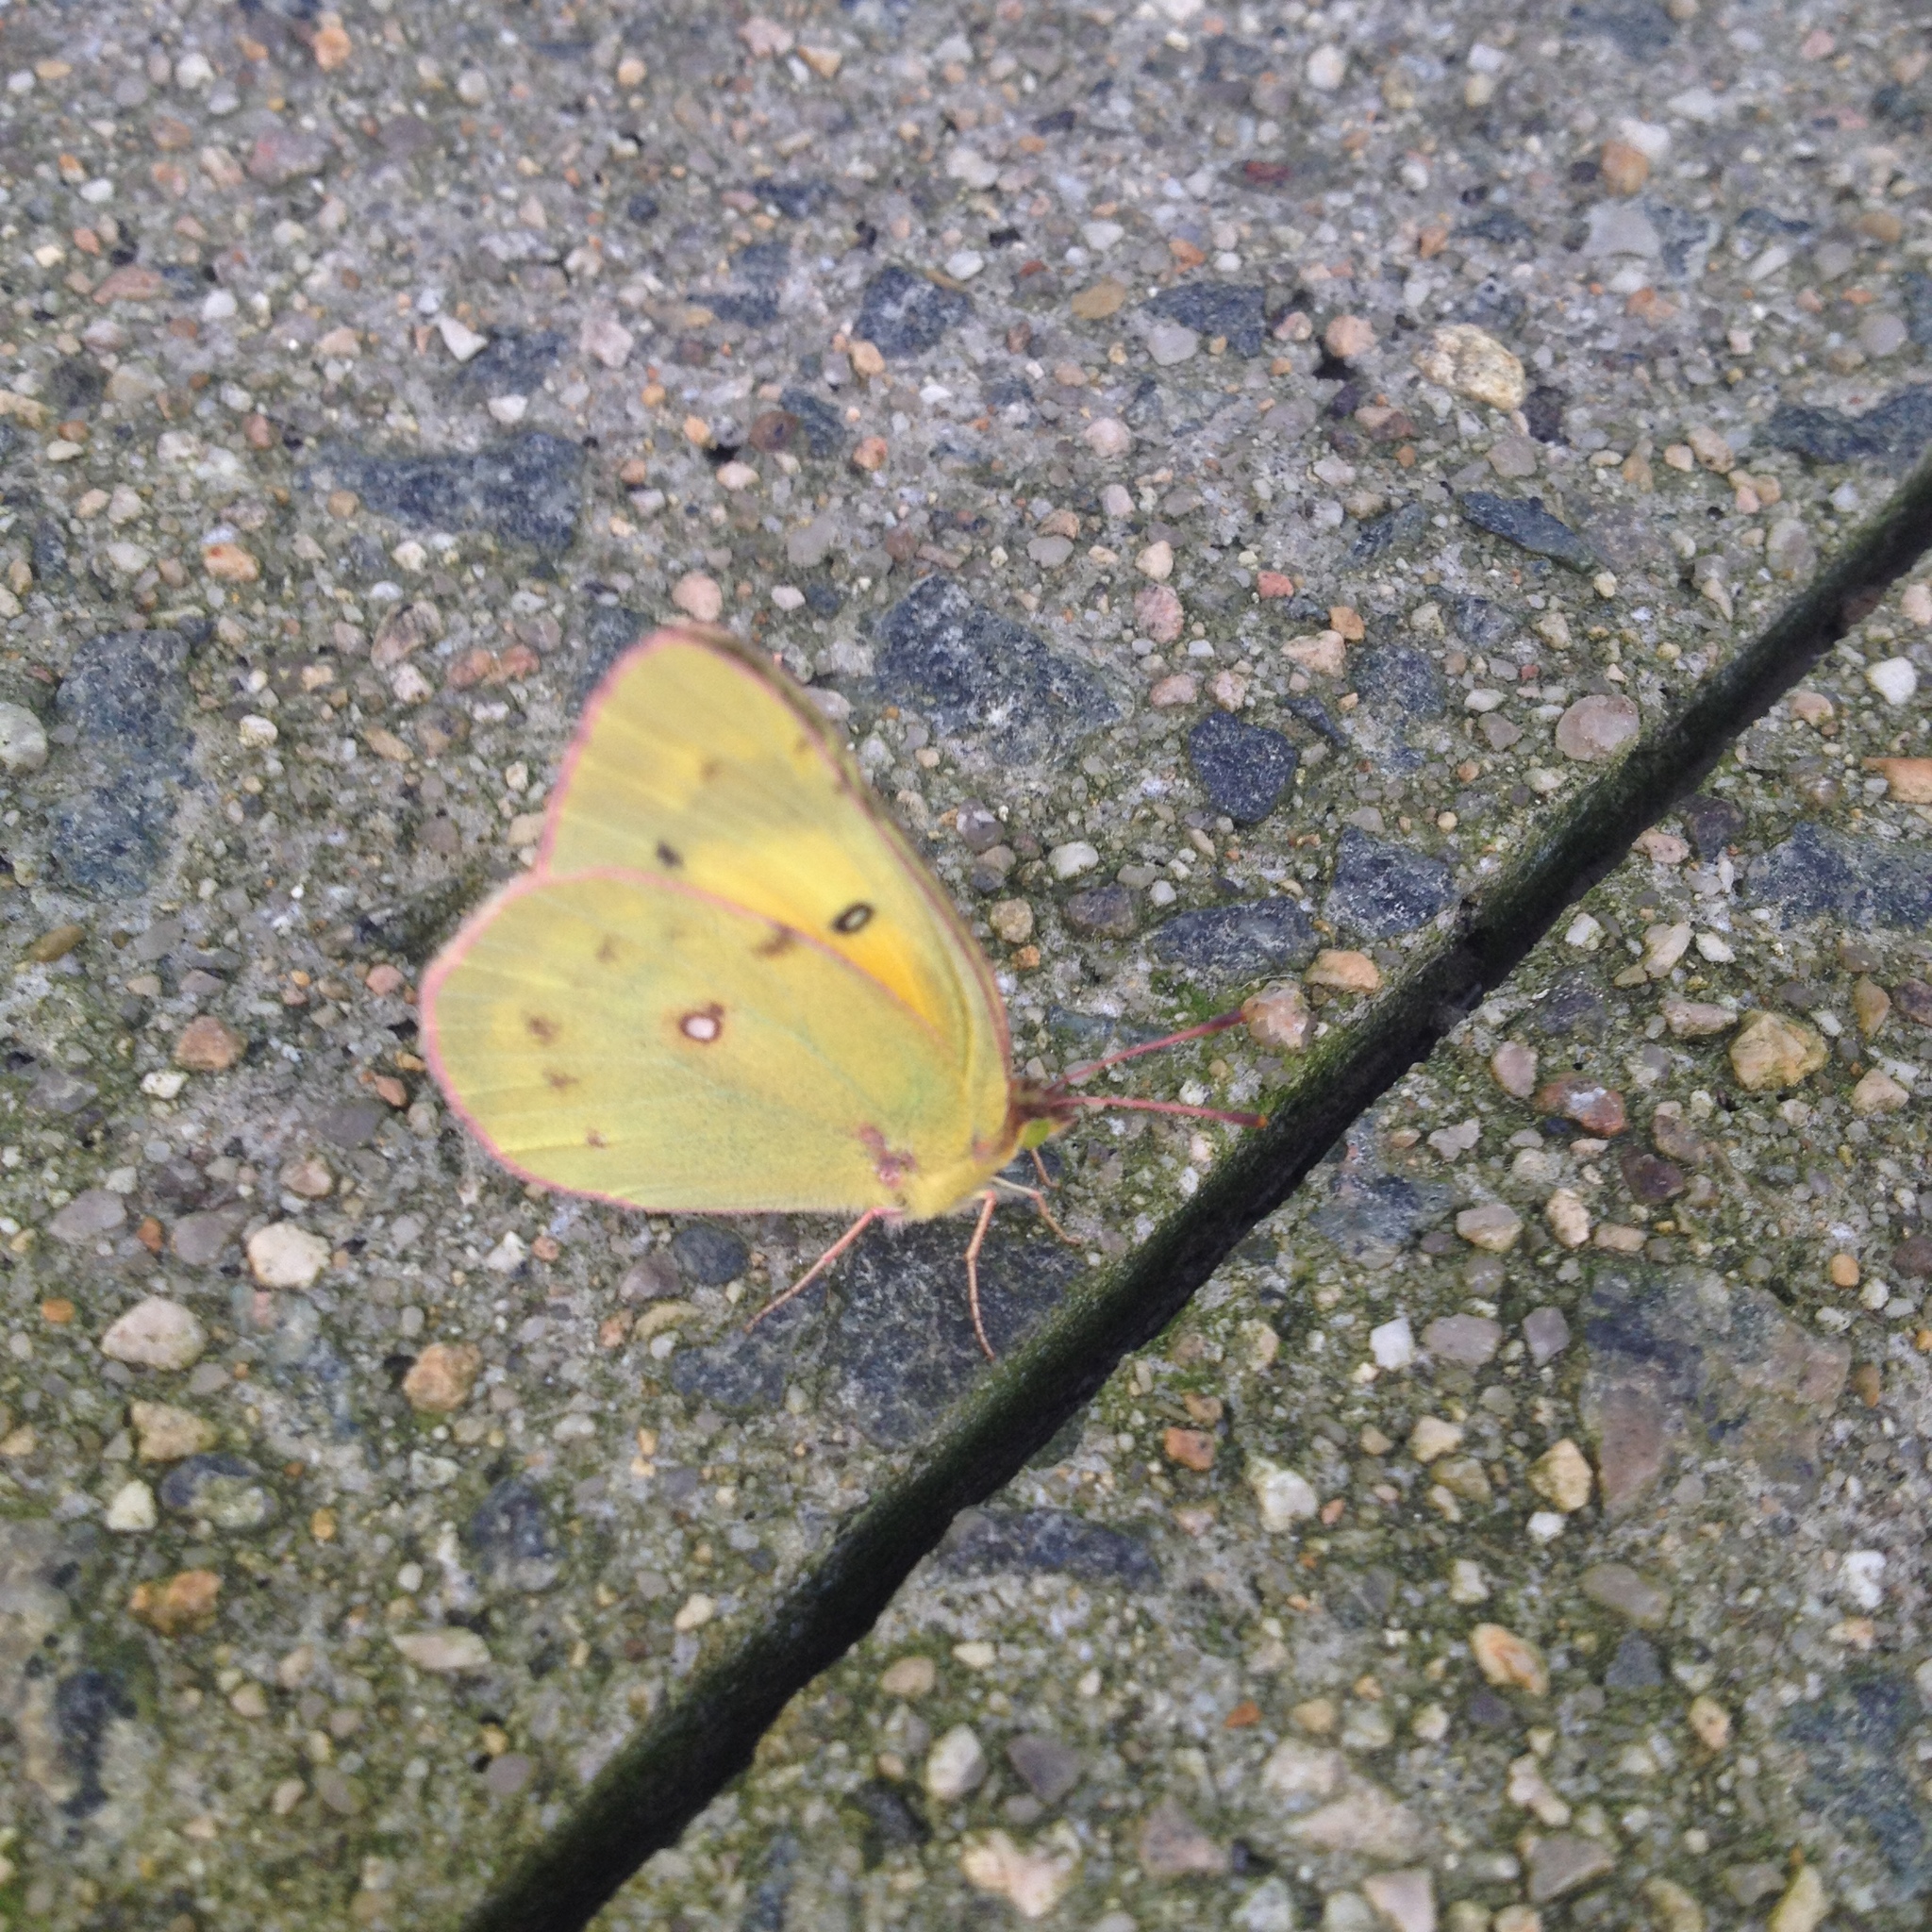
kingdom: Animalia
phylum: Arthropoda
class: Insecta
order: Lepidoptera
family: Pieridae
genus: Colias
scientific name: Colias eurytheme
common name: Alfalfa butterfly
